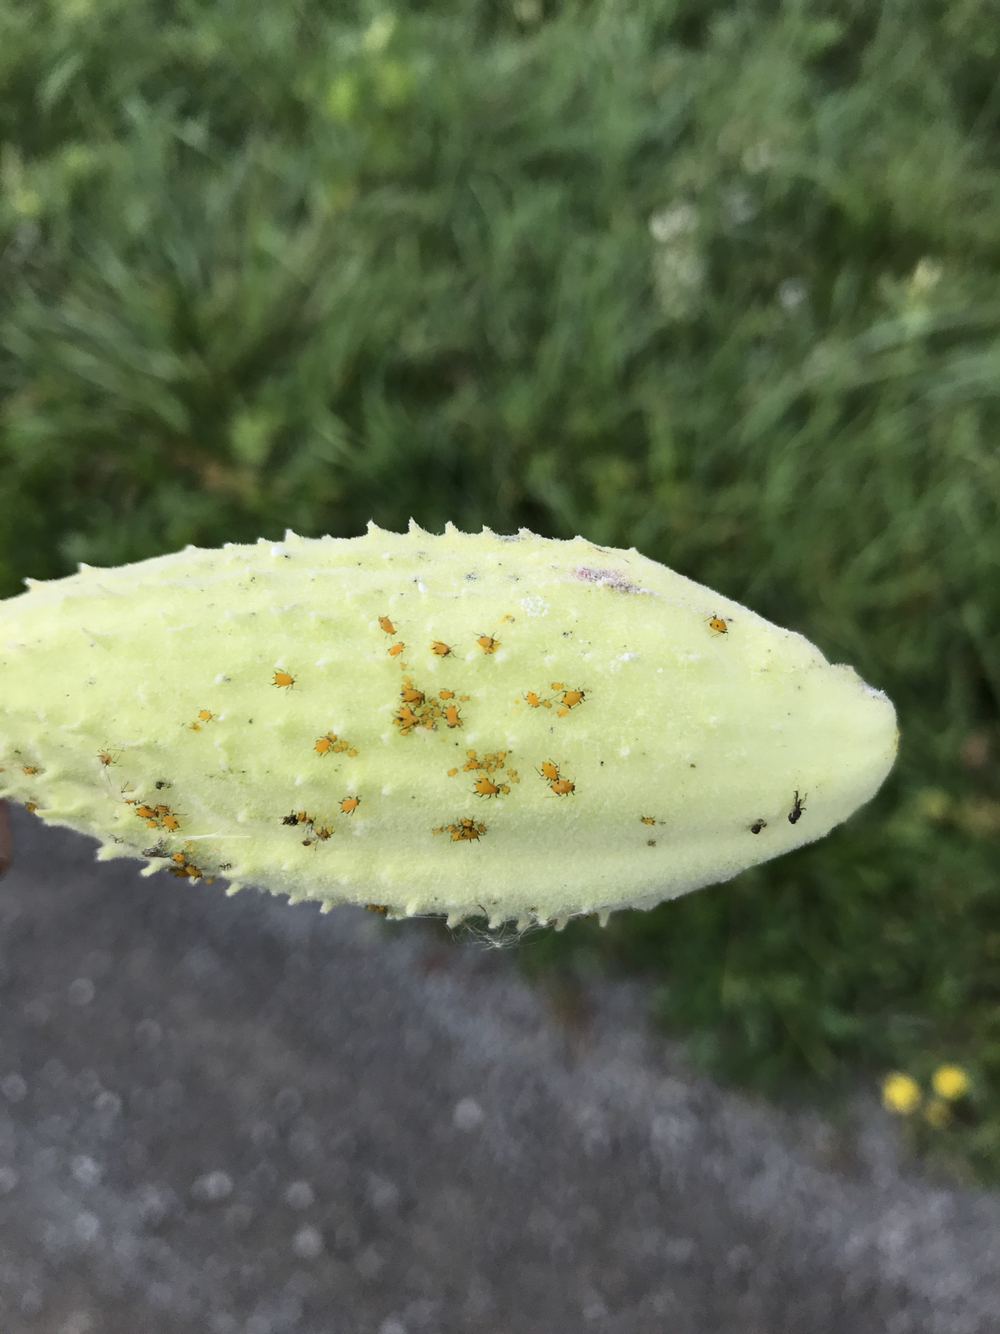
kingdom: Animalia
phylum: Arthropoda
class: Insecta
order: Hemiptera
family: Aphididae
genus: Aphis
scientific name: Aphis nerii
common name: Oleander aphid
